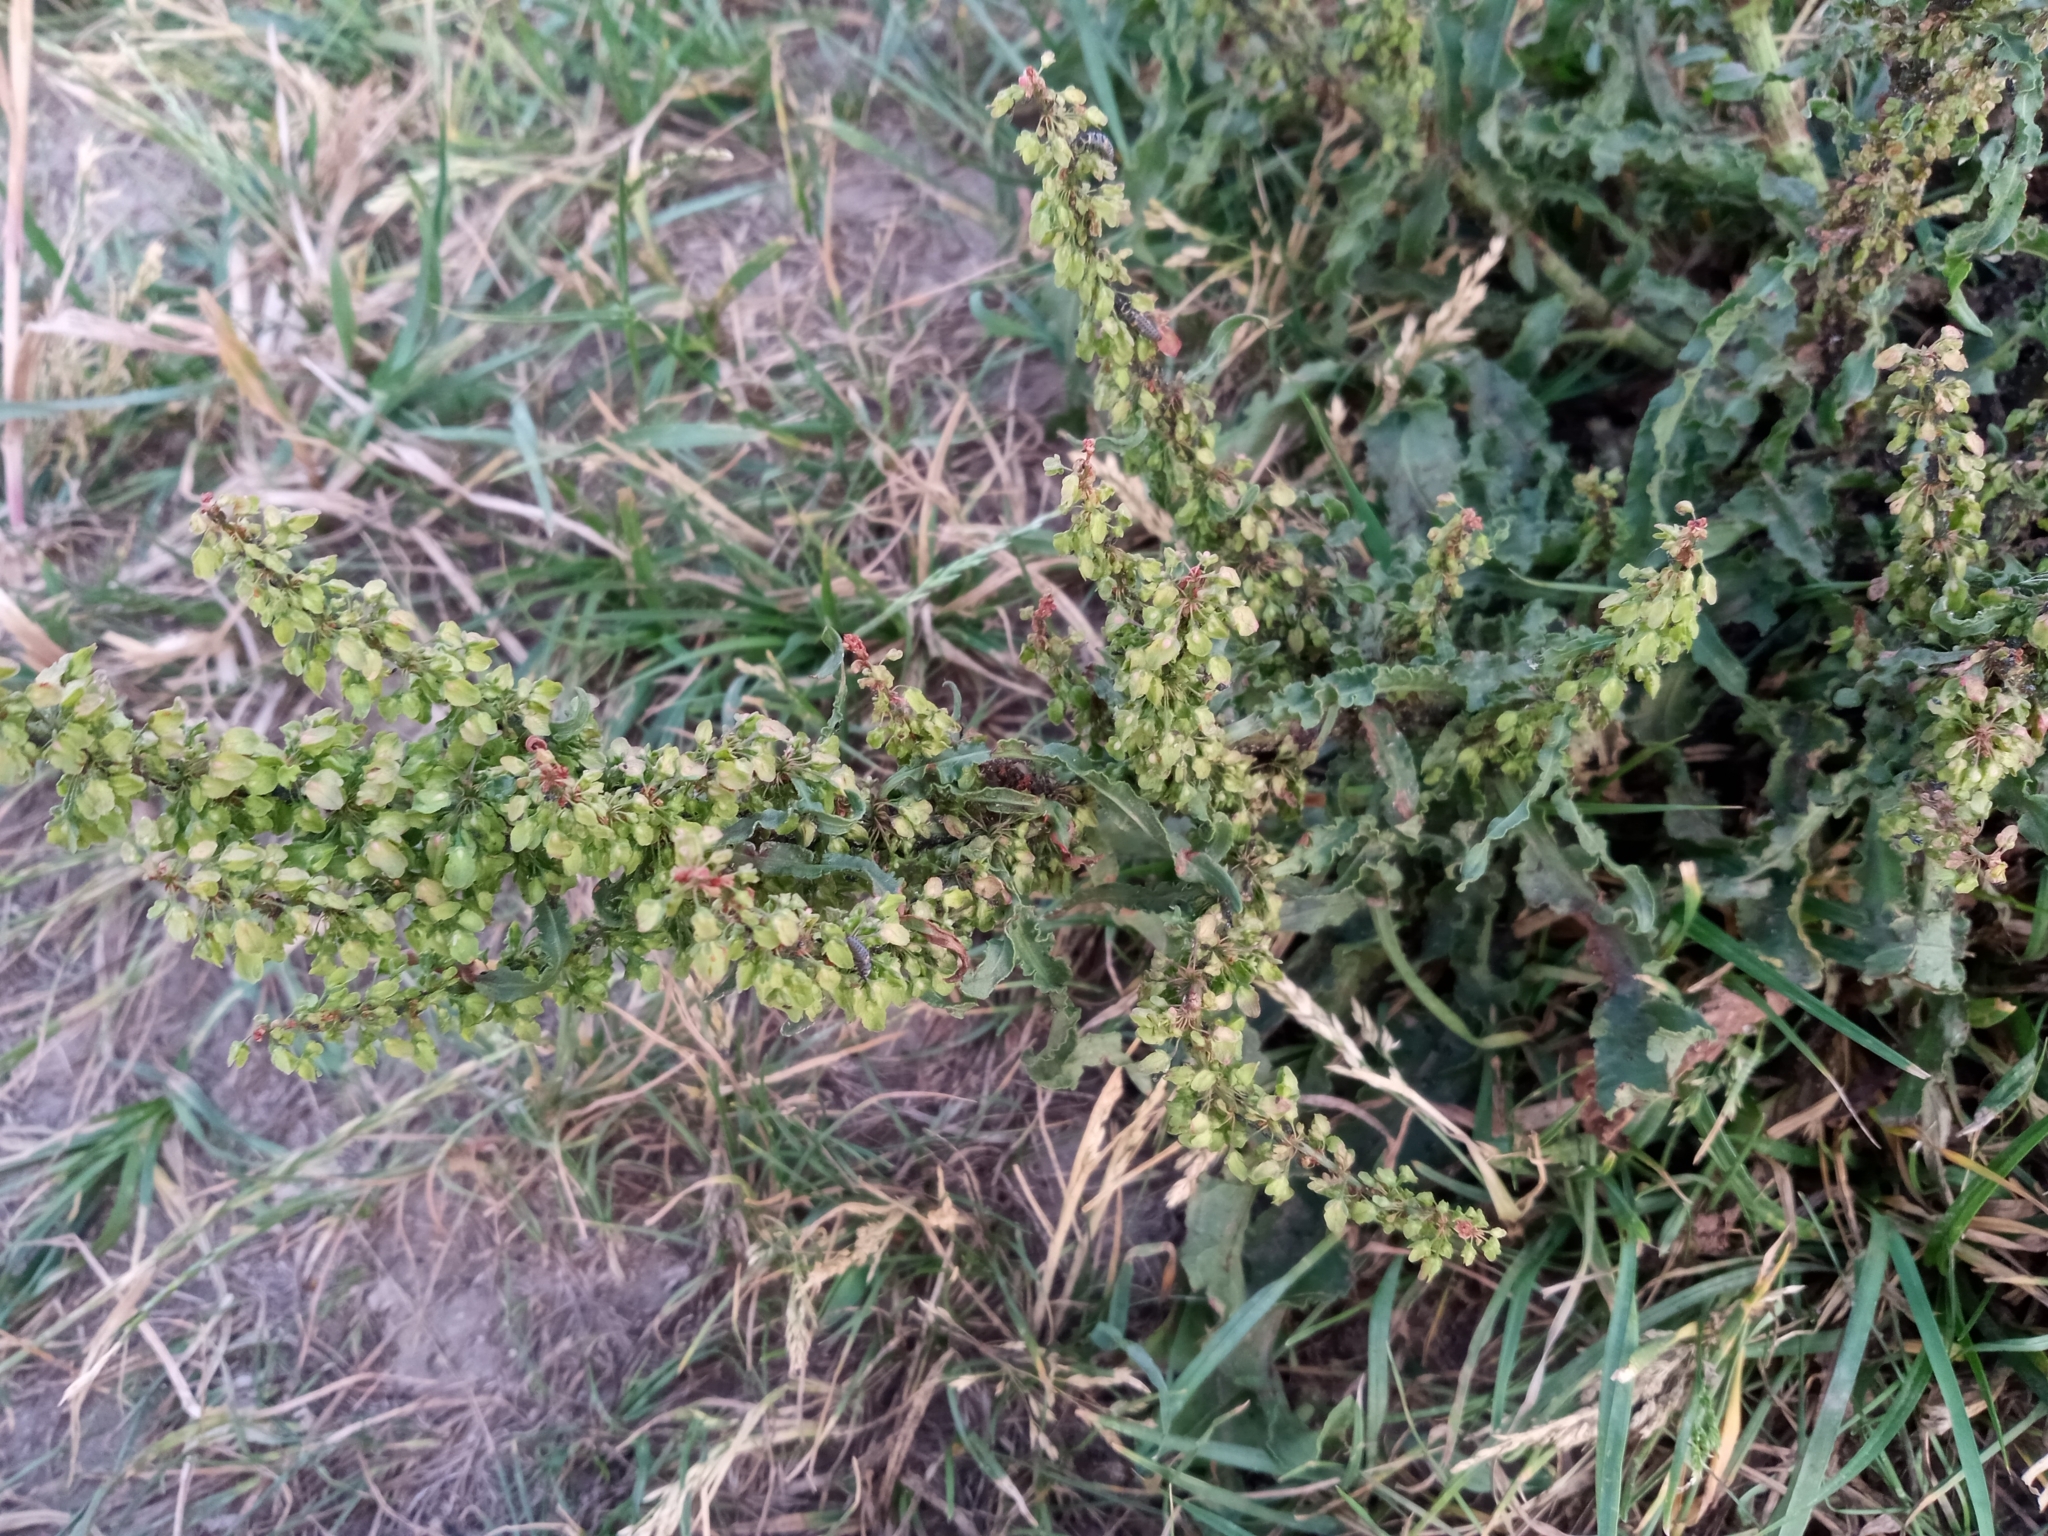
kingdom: Plantae
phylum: Tracheophyta
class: Magnoliopsida
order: Caryophyllales
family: Polygonaceae
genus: Rumex
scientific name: Rumex crispus
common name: Curled dock
